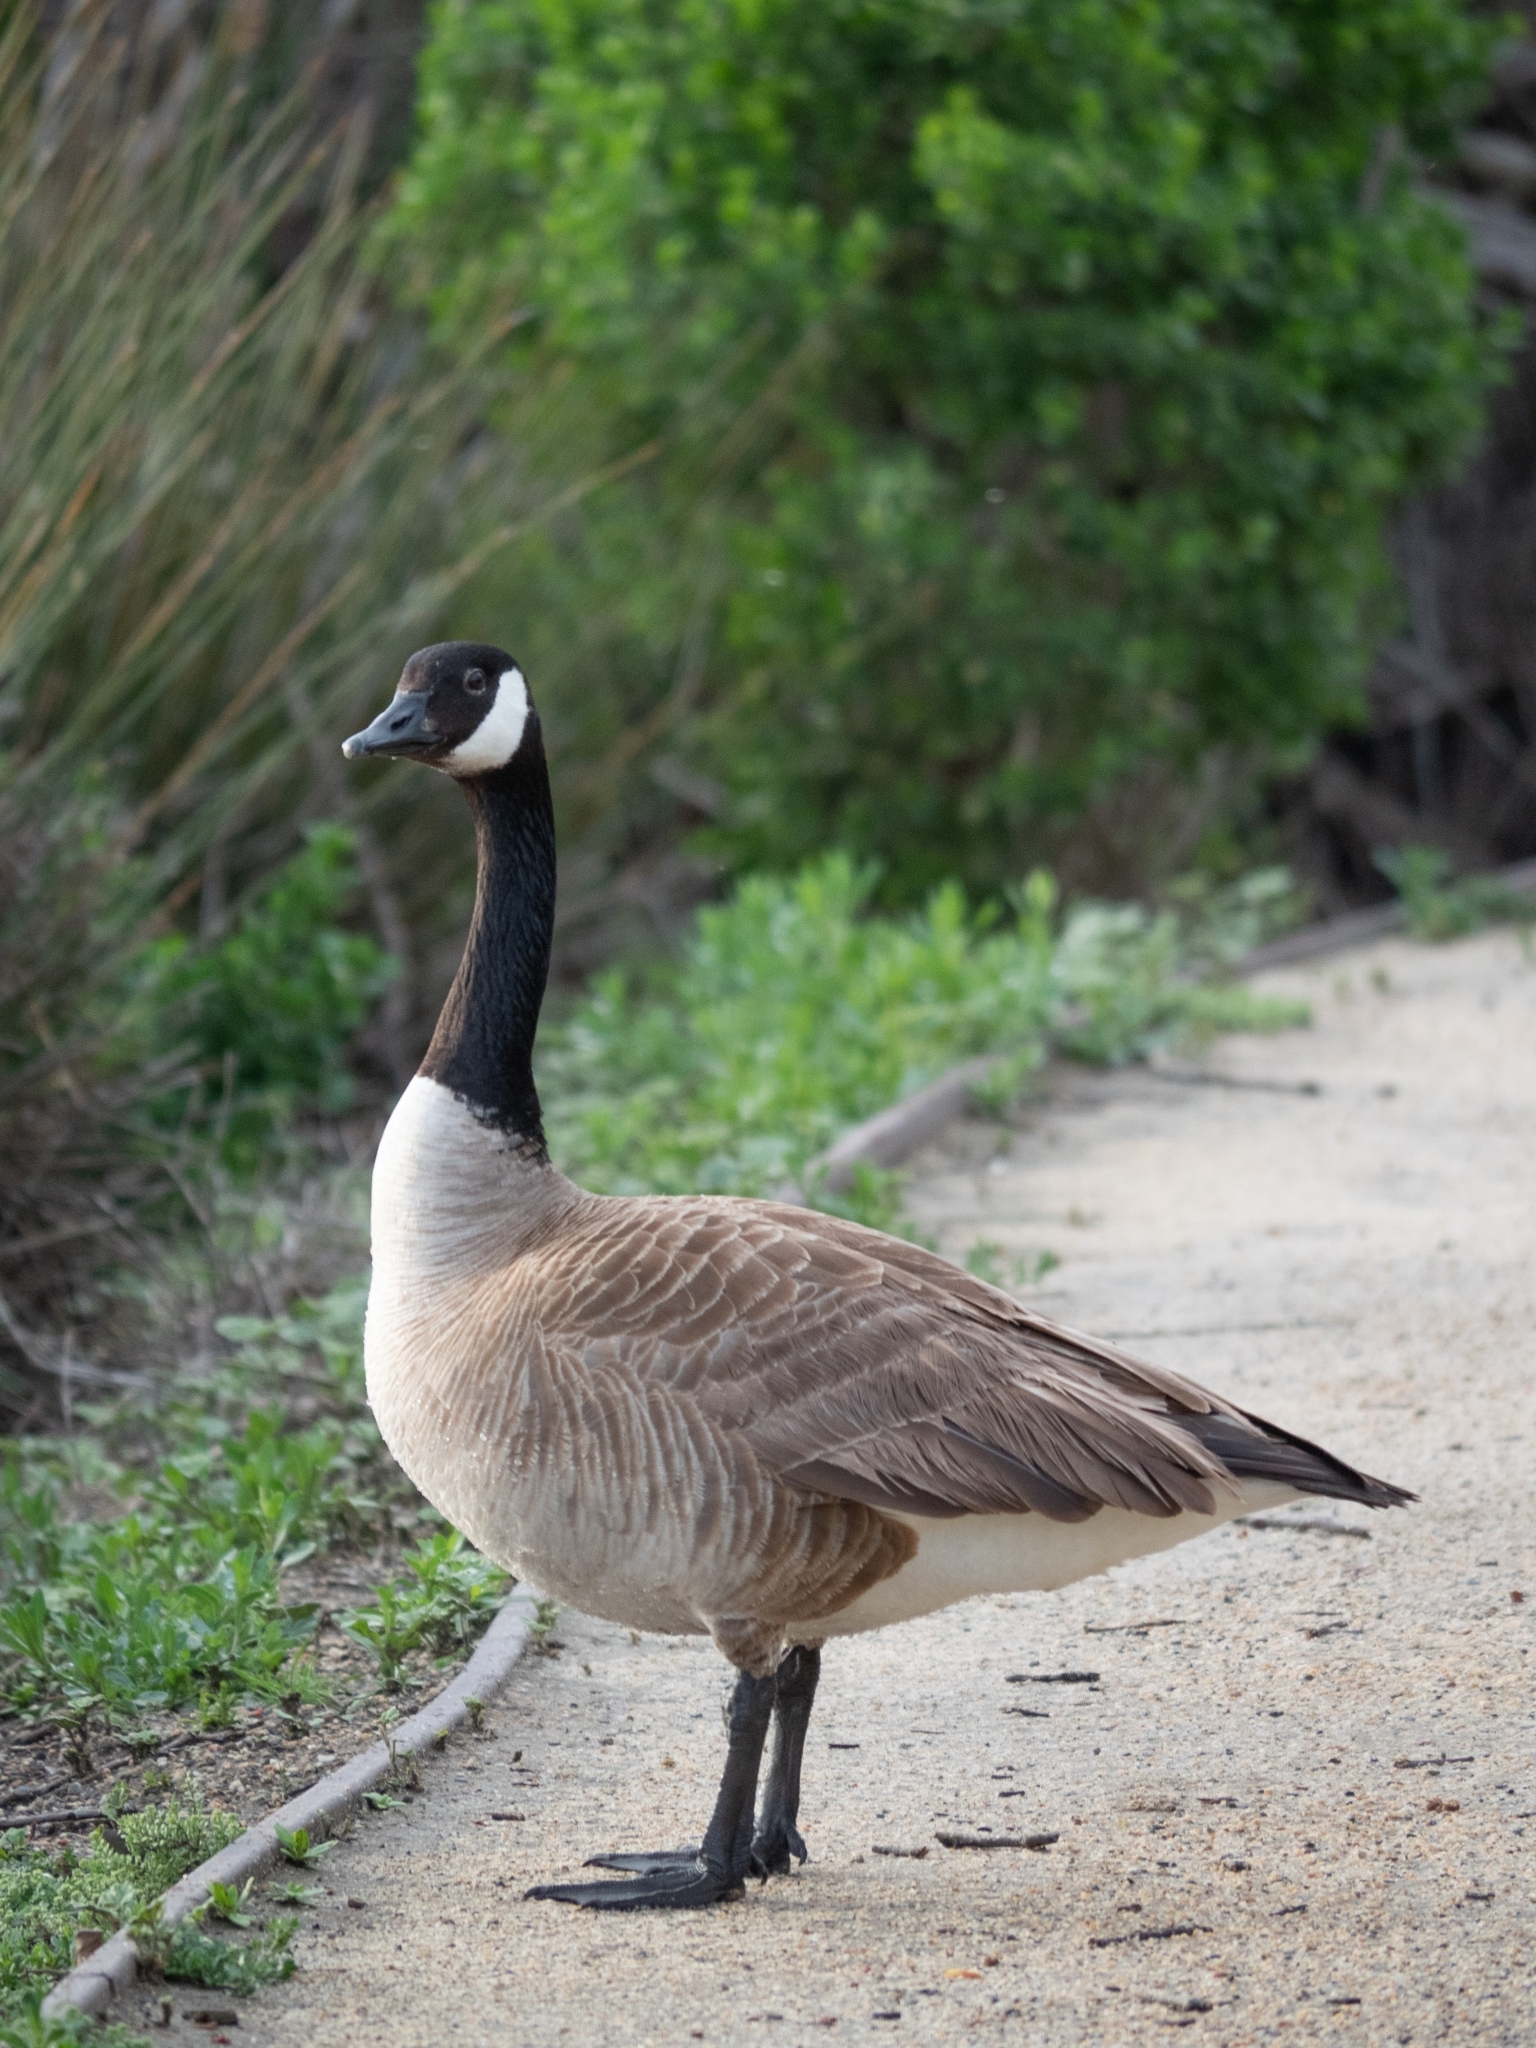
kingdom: Animalia
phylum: Chordata
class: Aves
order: Anseriformes
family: Anatidae
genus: Branta
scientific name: Branta canadensis
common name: Canada goose
